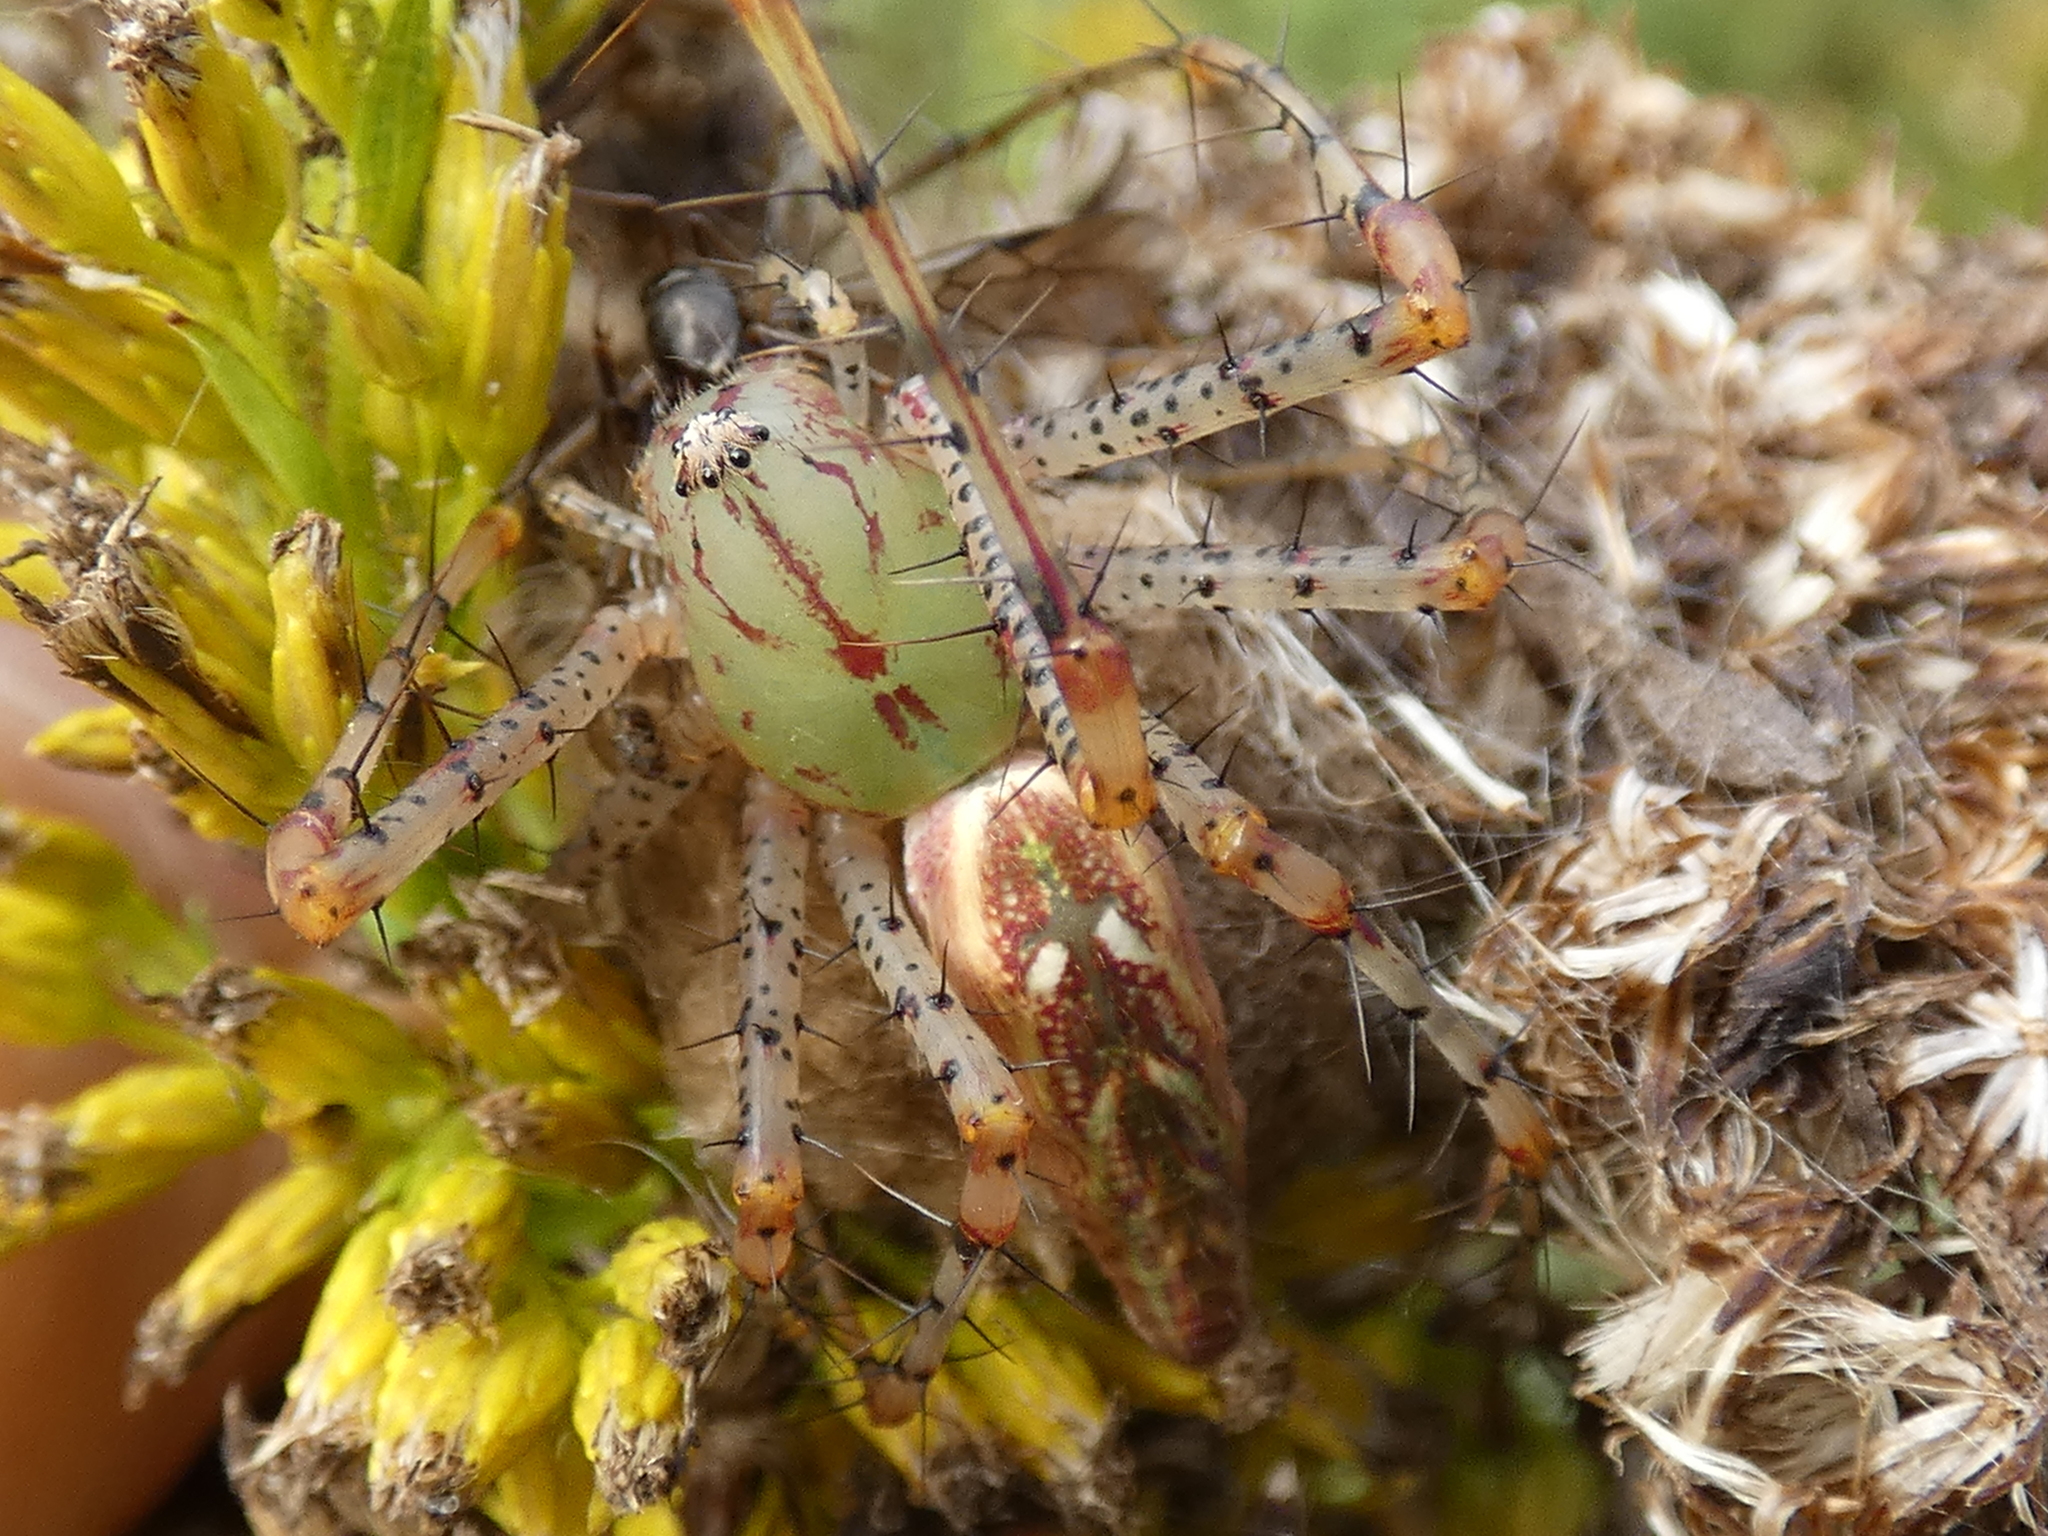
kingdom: Animalia
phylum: Arthropoda
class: Arachnida
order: Araneae
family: Oxyopidae
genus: Peucetia
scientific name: Peucetia viridans
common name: Lynx spiders
